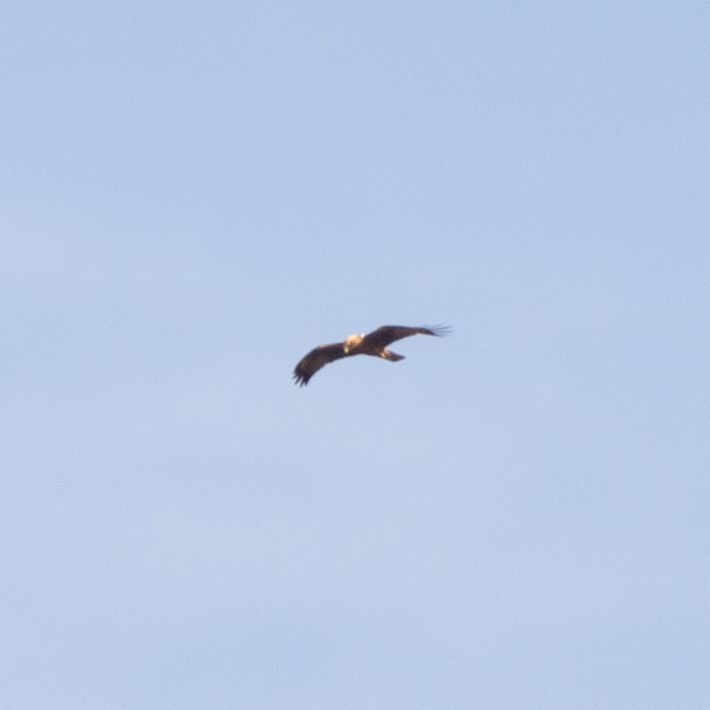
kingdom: Animalia
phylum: Chordata
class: Aves
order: Accipitriformes
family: Accipitridae
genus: Hieraaetus
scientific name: Hieraaetus pennatus
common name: Booted eagle
